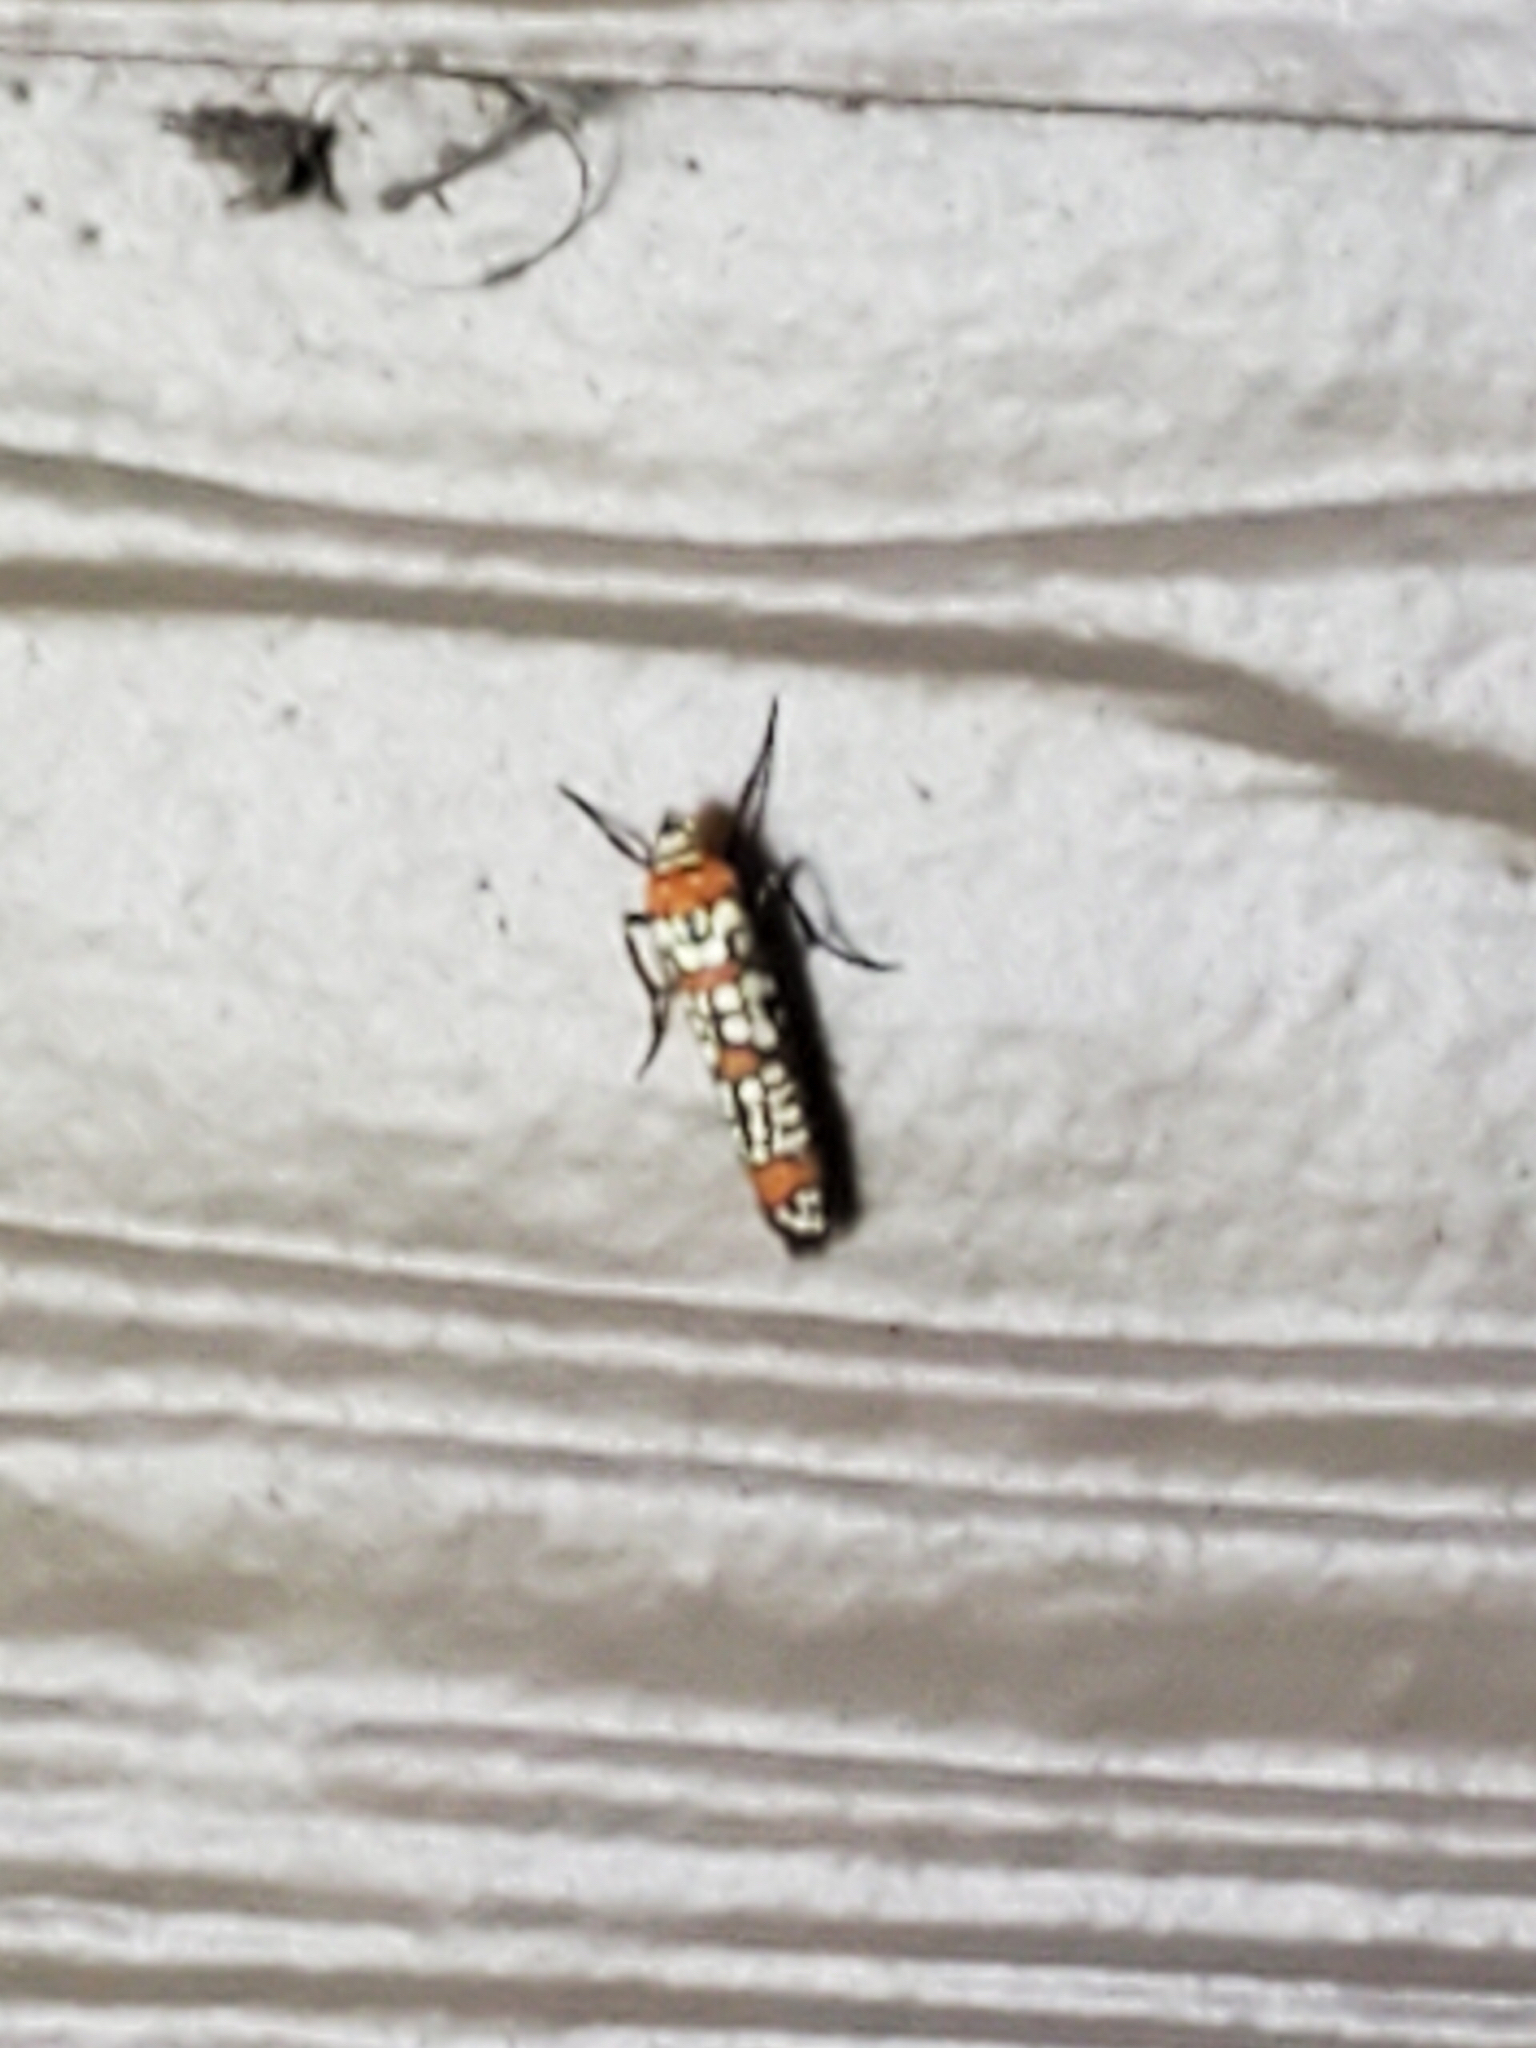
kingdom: Animalia
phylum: Arthropoda
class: Insecta
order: Lepidoptera
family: Attevidae
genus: Atteva
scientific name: Atteva punctella
